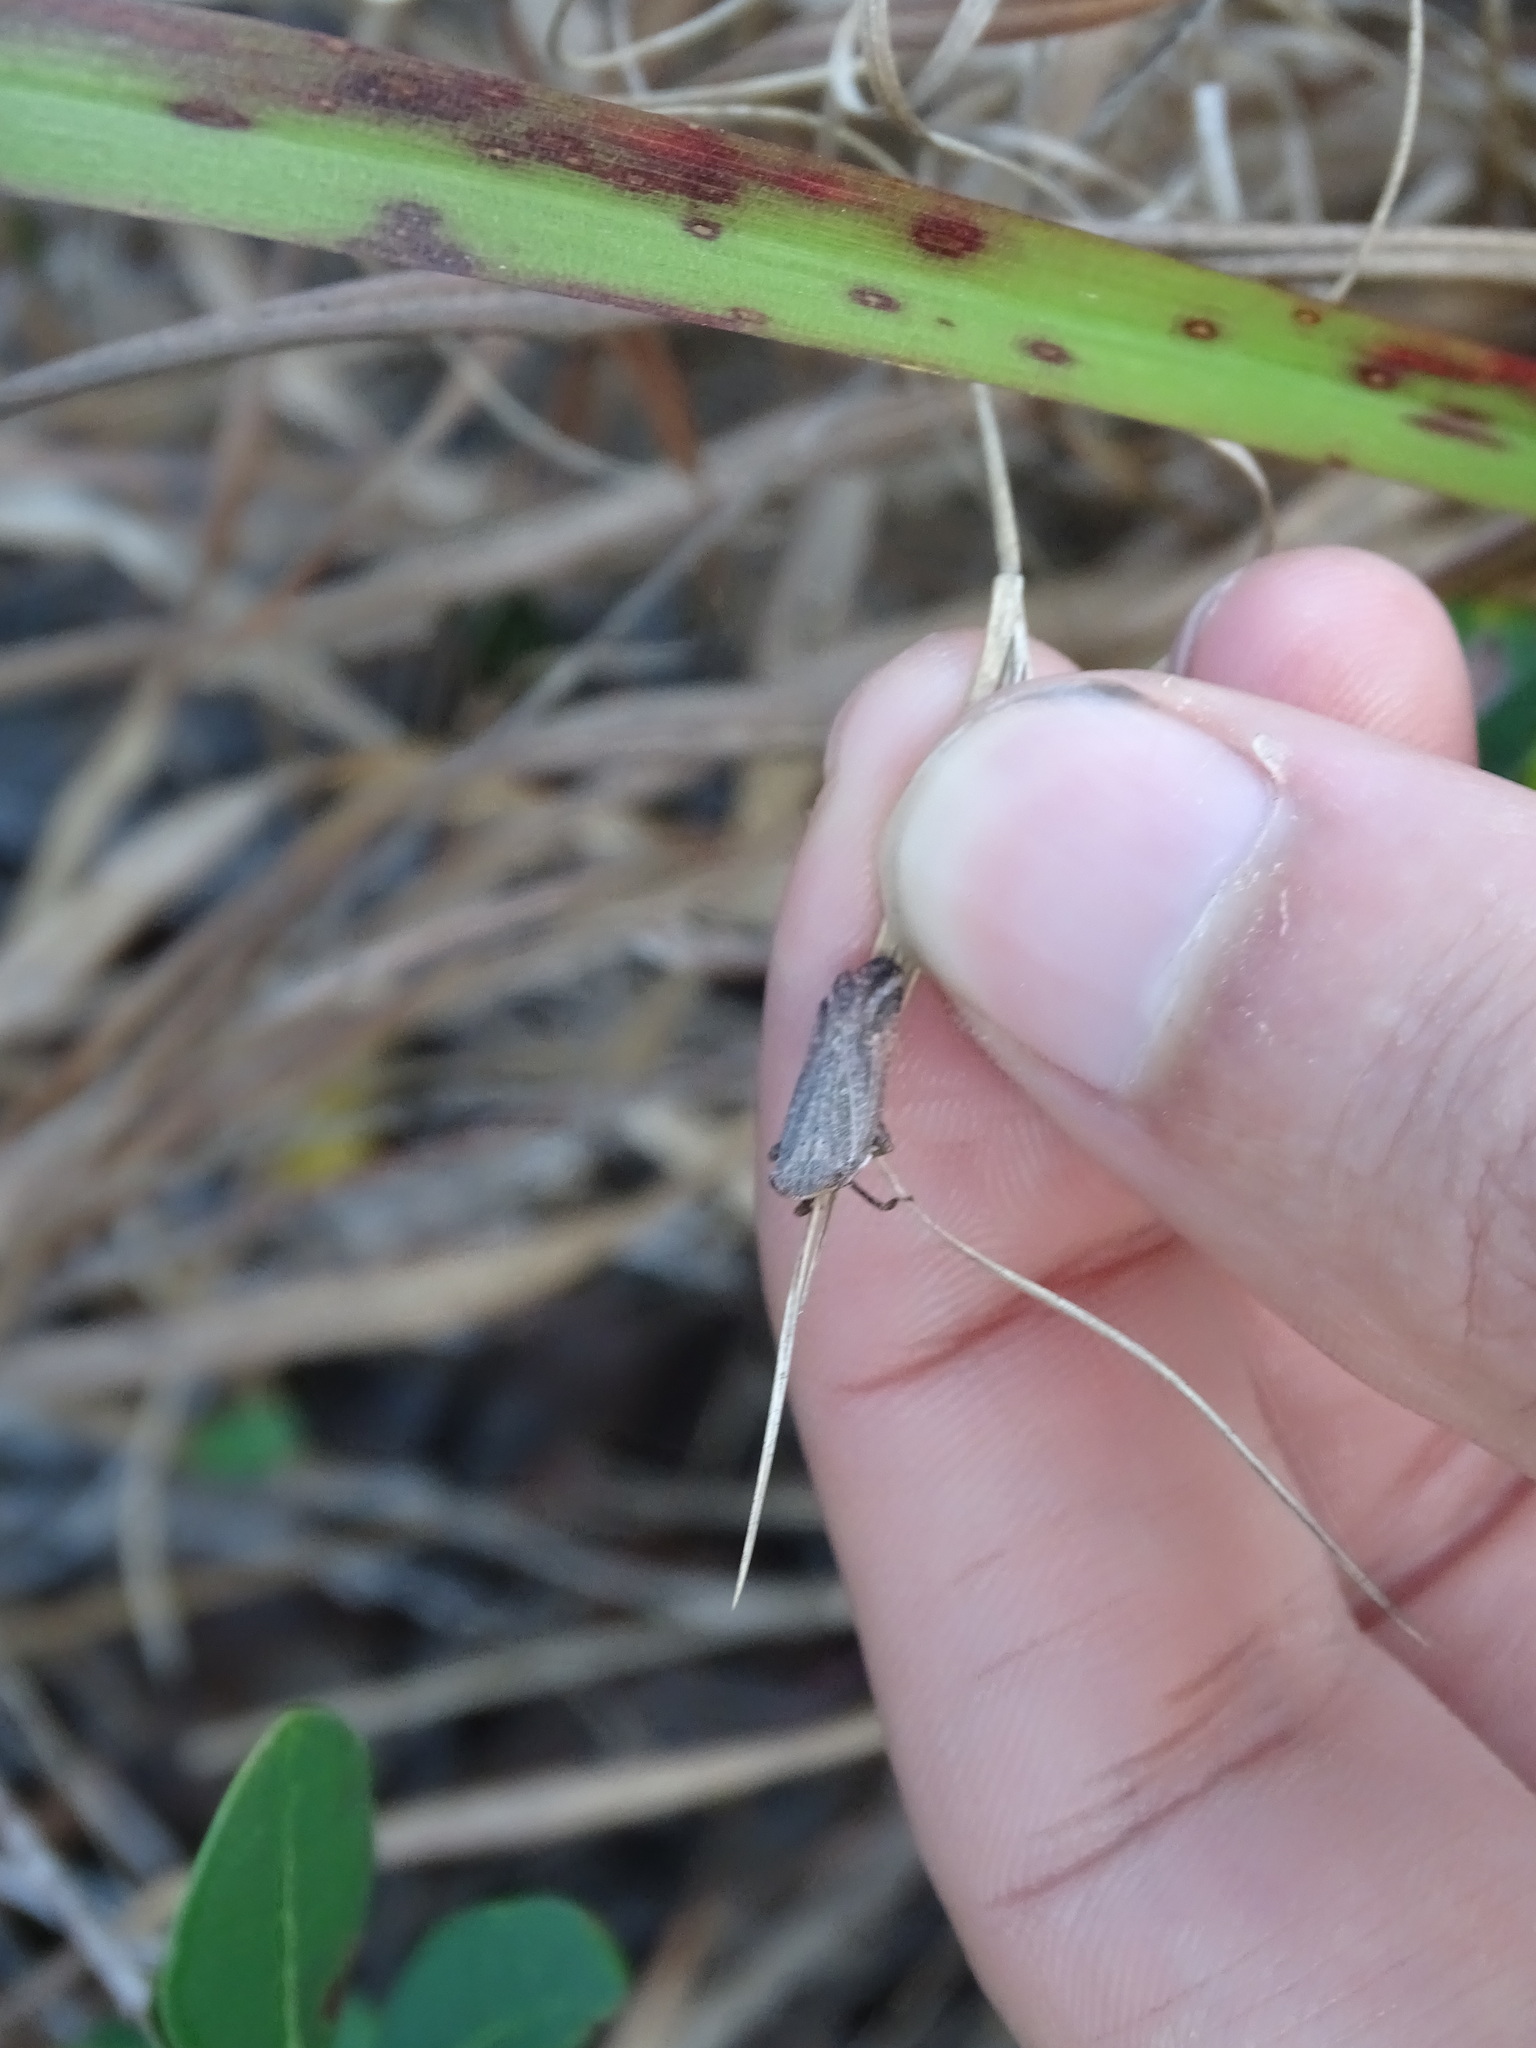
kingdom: Animalia
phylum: Arthropoda
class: Insecta
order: Hemiptera
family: Fulgoridae
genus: Cyrpoptus
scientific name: Cyrpoptus reineckei
